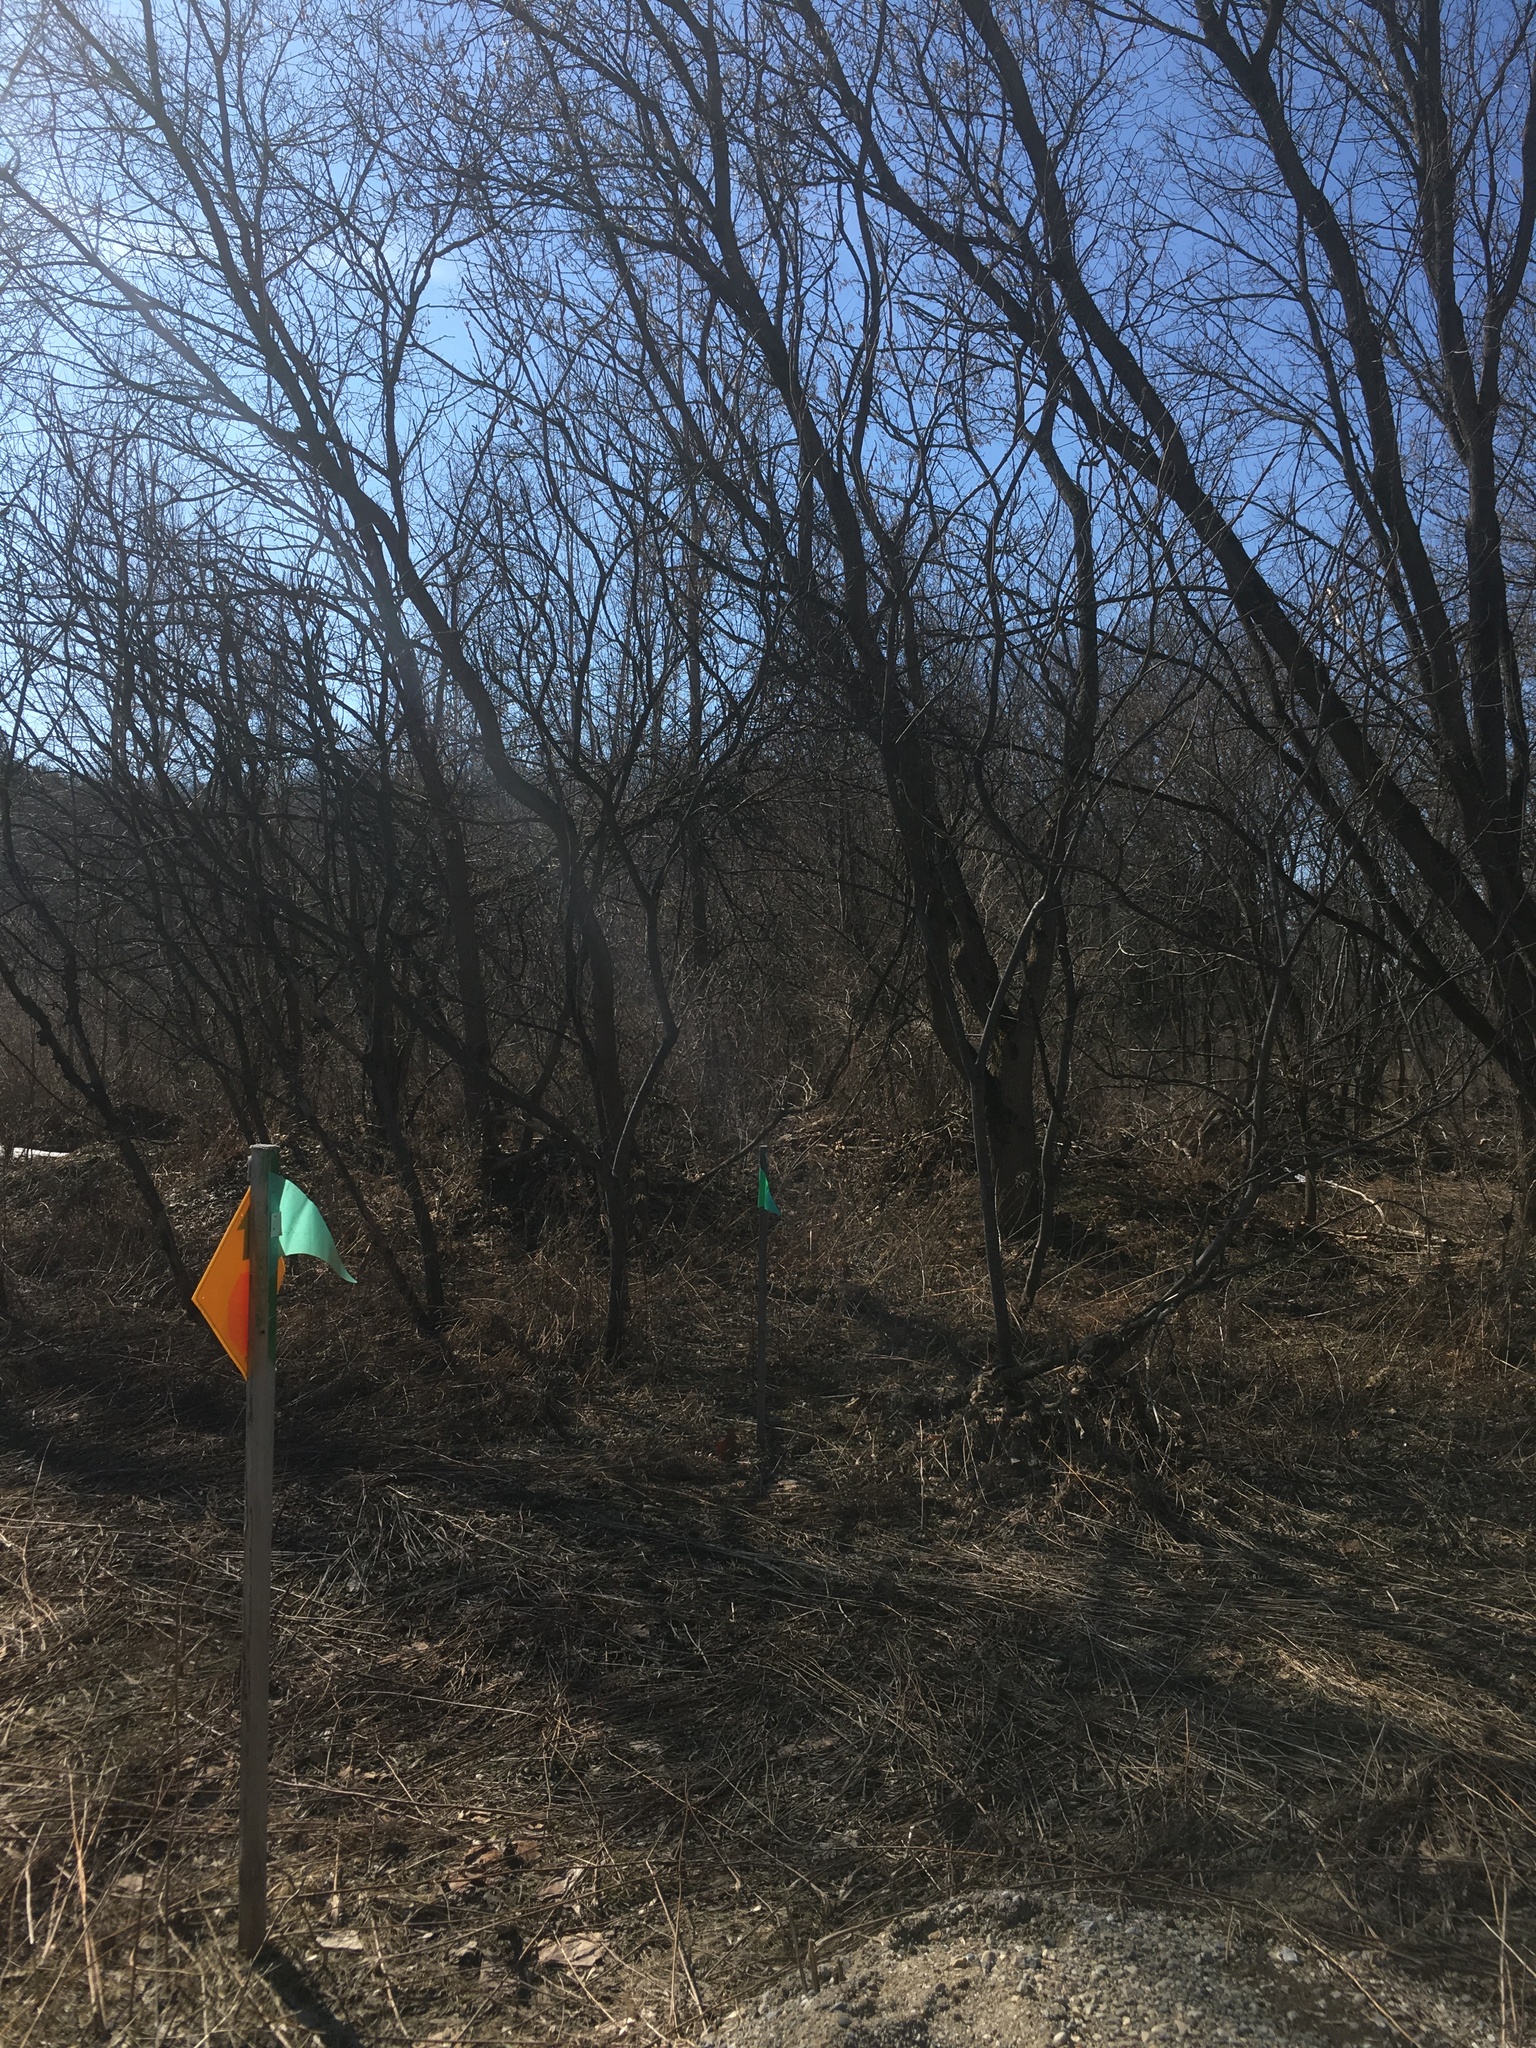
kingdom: Plantae
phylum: Tracheophyta
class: Magnoliopsida
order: Sapindales
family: Sapindaceae
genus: Acer
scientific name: Acer negundo
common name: Ashleaf maple
